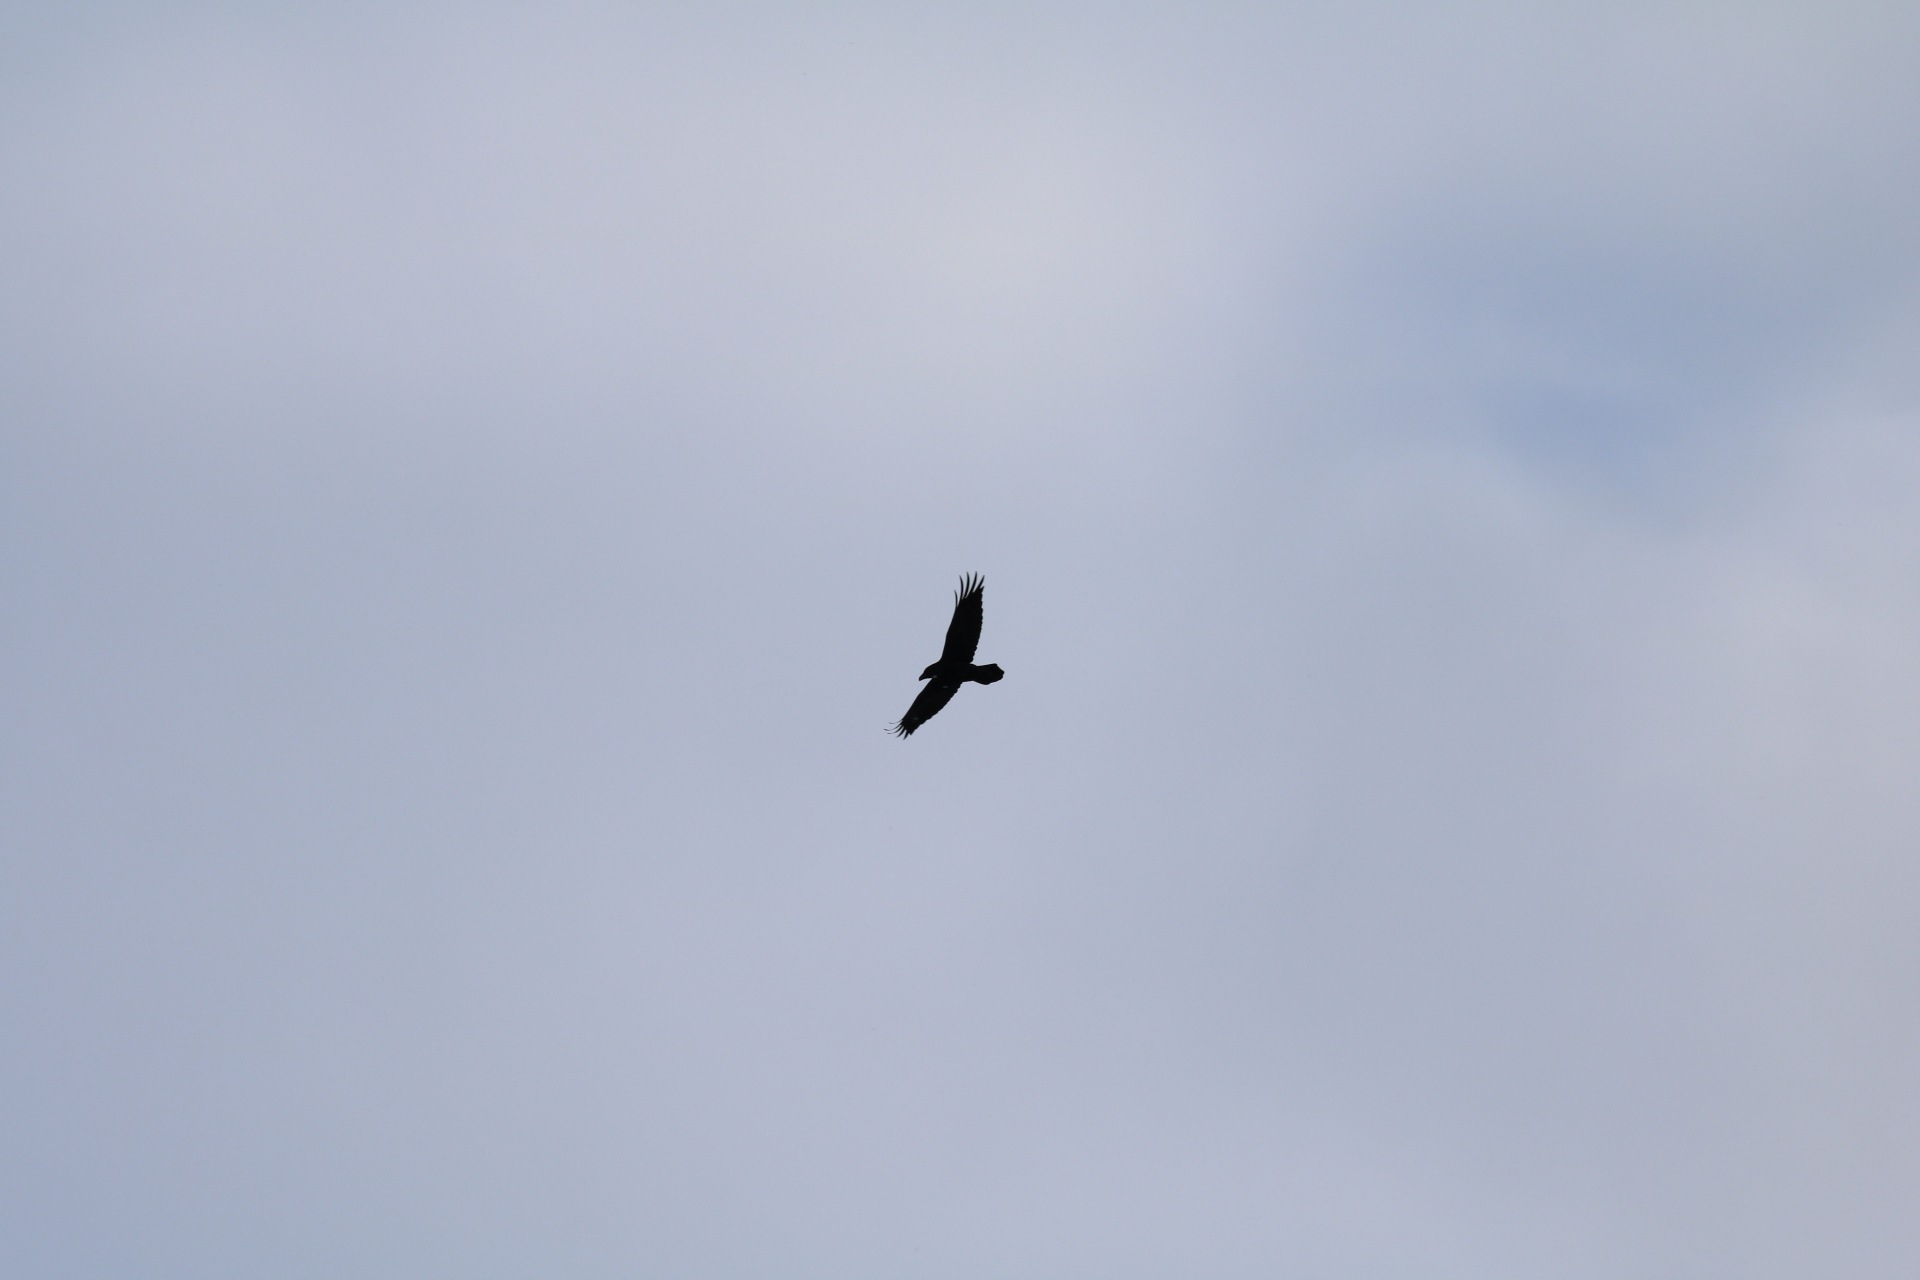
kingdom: Animalia
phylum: Chordata
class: Aves
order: Passeriformes
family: Corvidae
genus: Corvus
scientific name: Corvus corax
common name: Common raven
